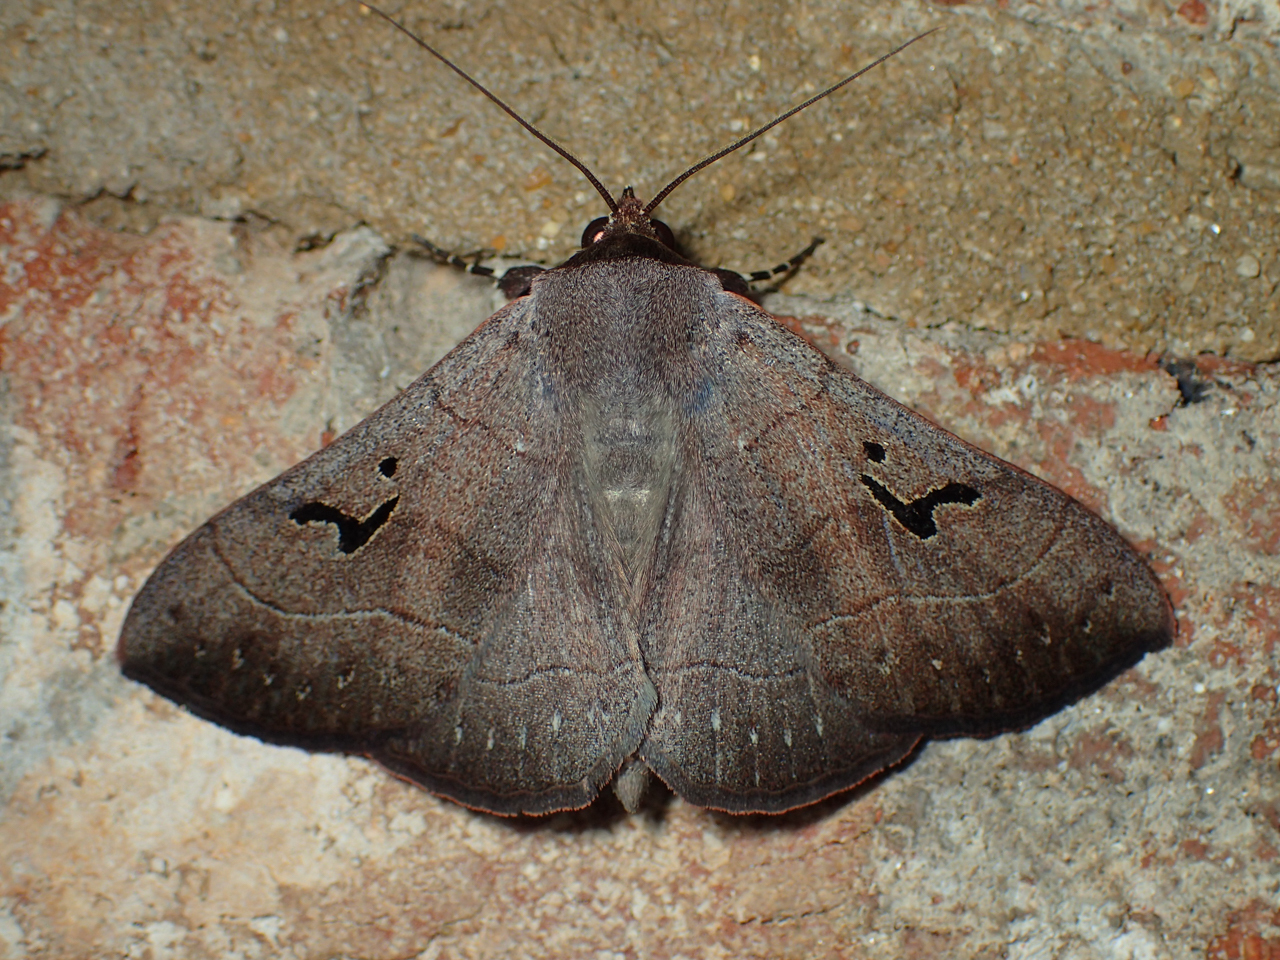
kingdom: Animalia
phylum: Arthropoda
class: Insecta
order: Lepidoptera
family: Erebidae
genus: Panopoda
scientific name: Panopoda carneicosta
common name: Brown panopoda moth
